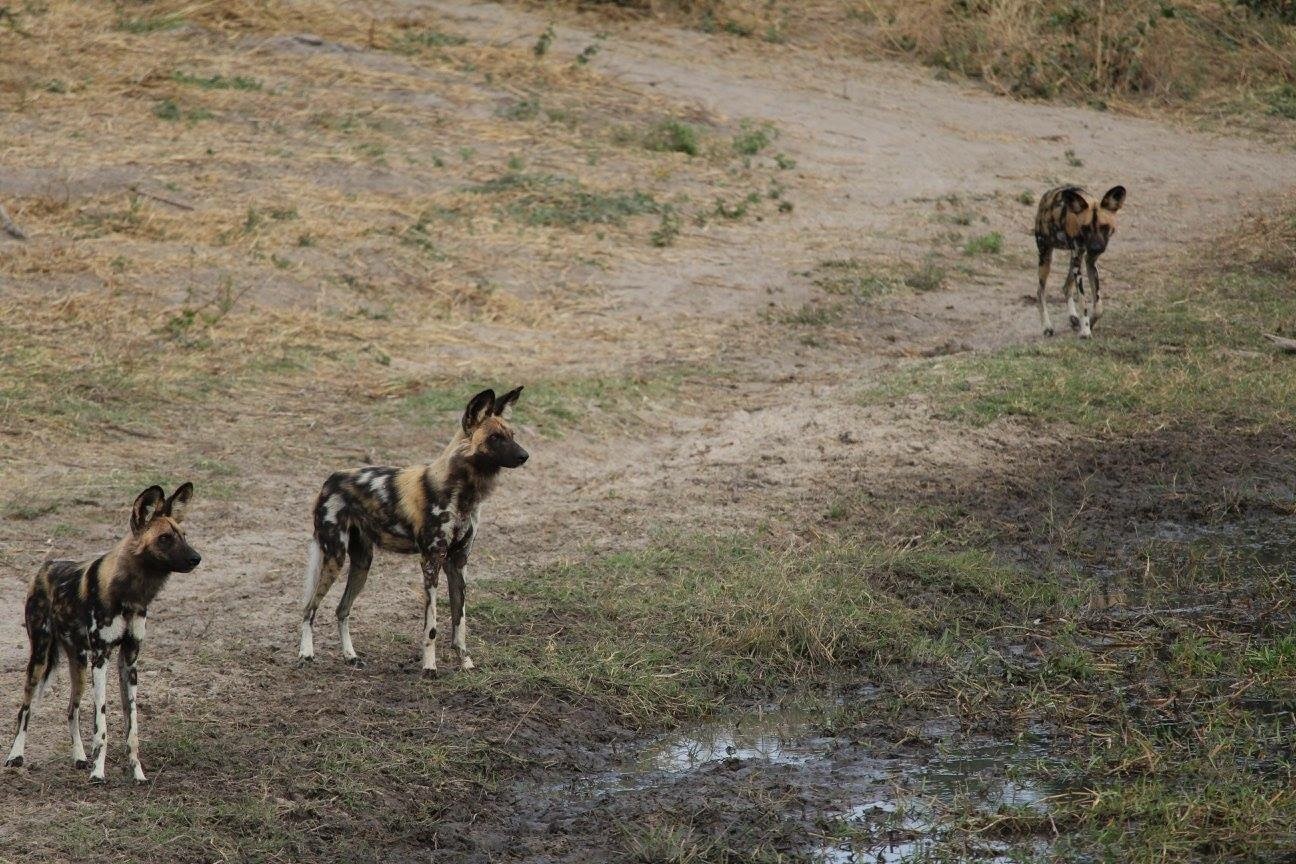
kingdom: Animalia
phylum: Chordata
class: Mammalia
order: Carnivora
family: Canidae
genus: Lycaon
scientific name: Lycaon pictus
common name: African wild dog
